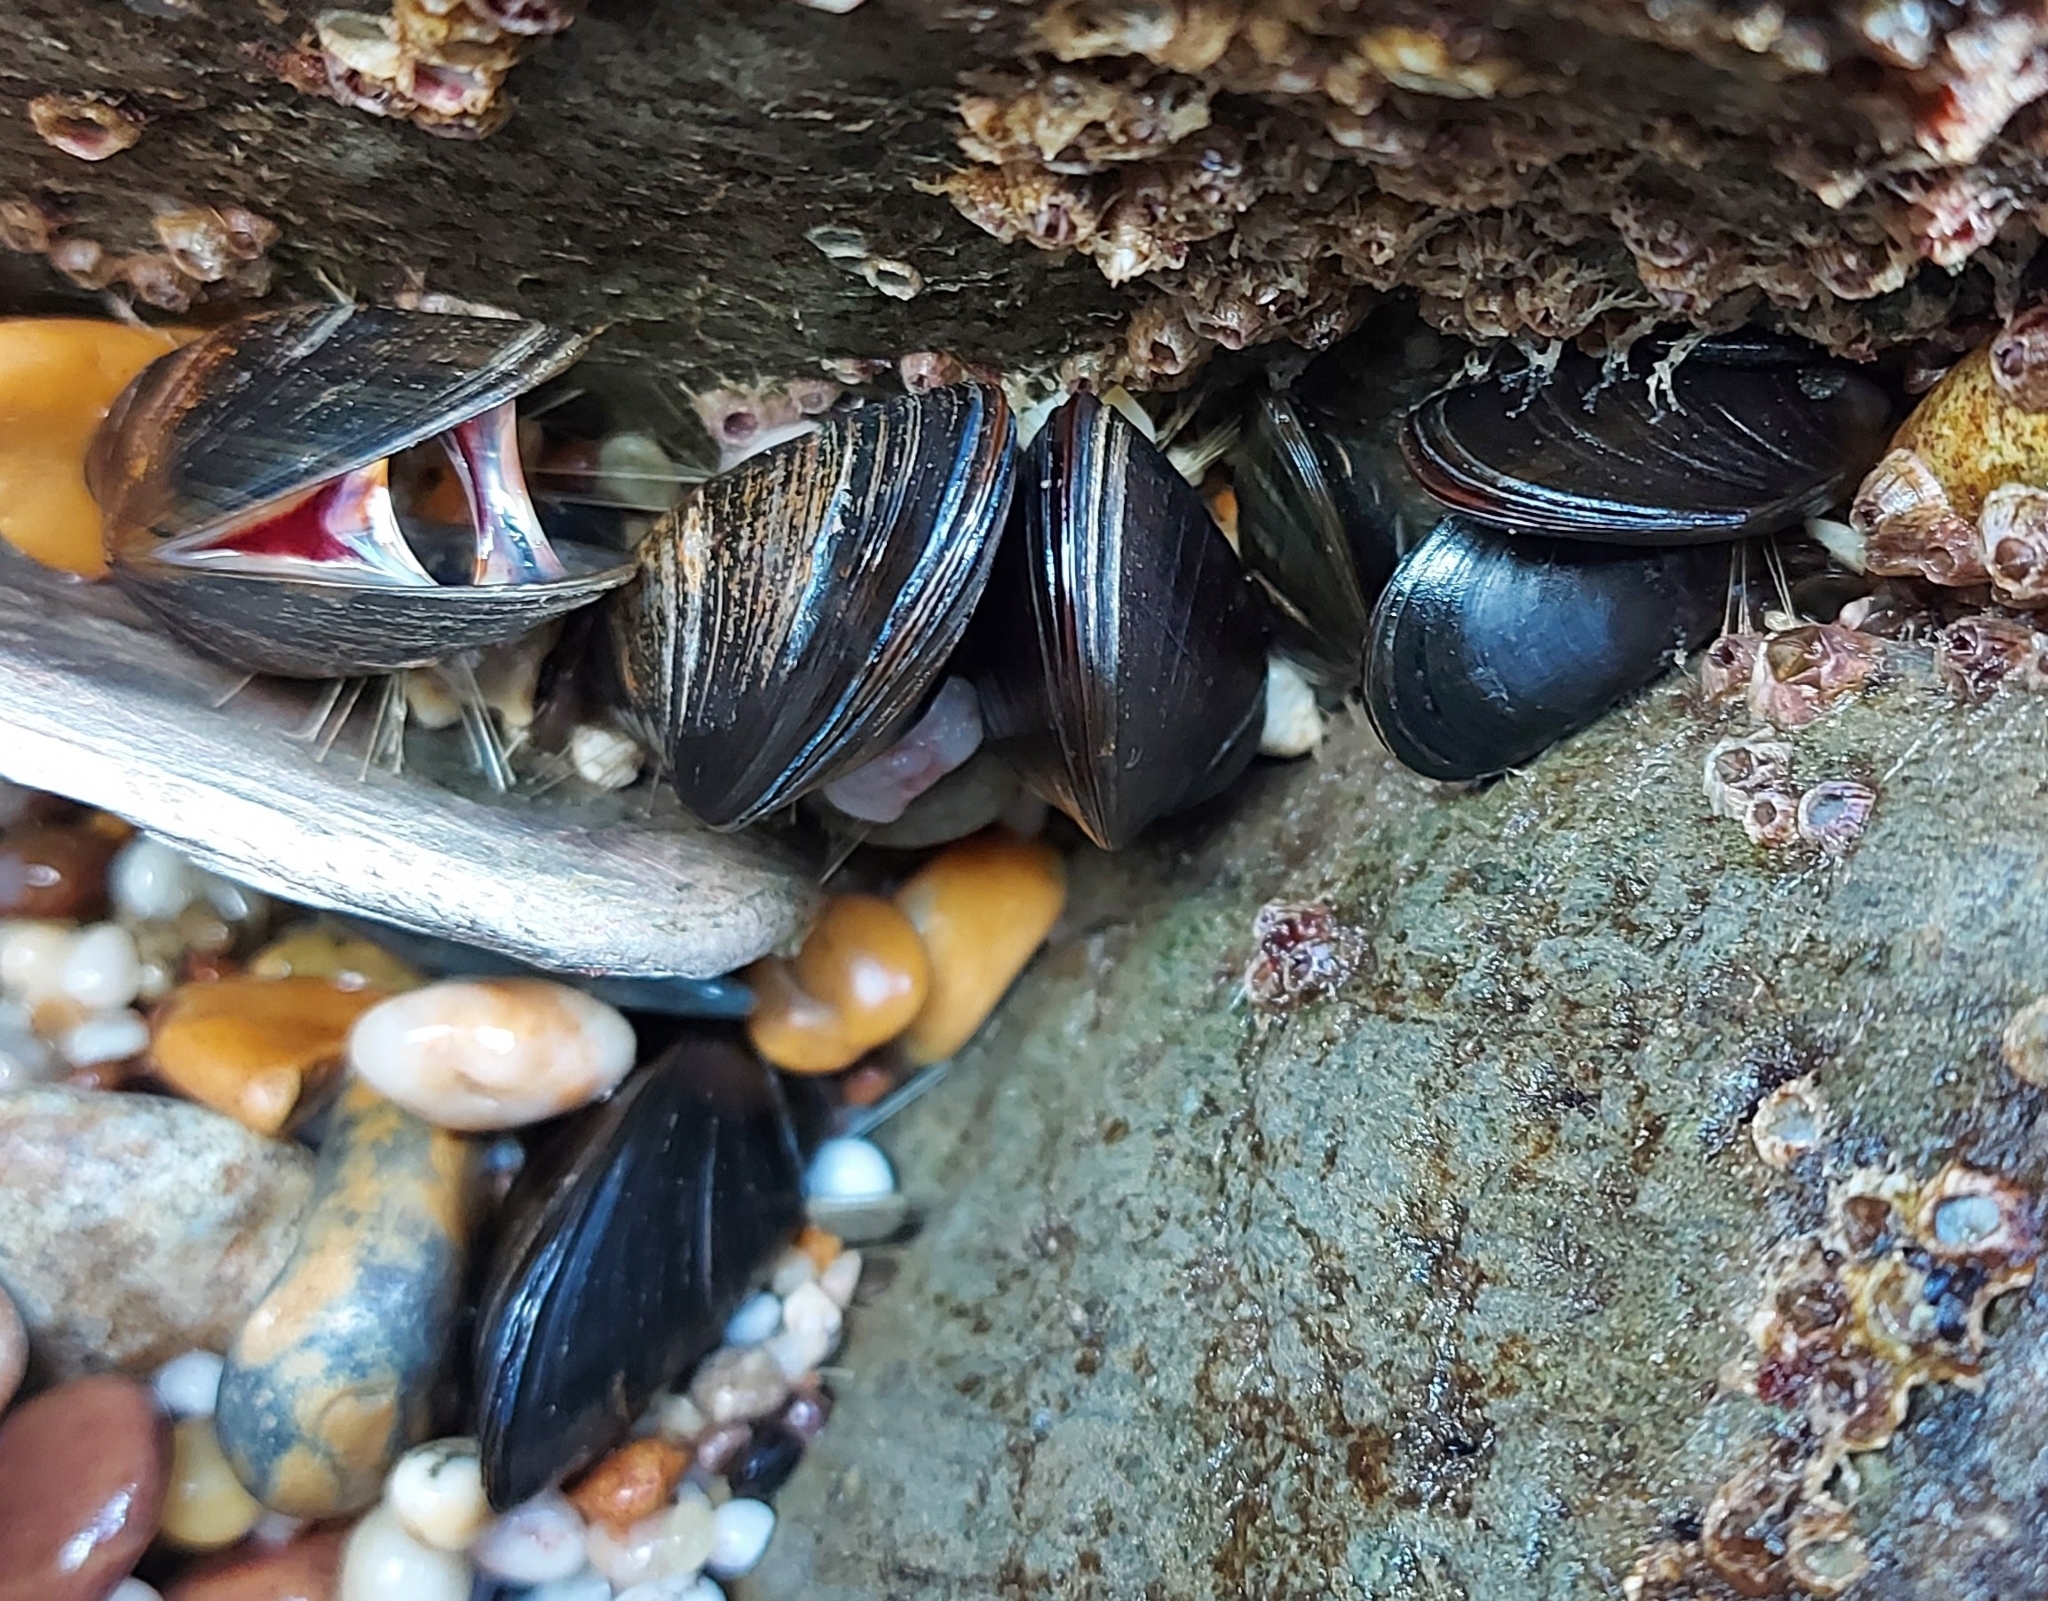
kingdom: Animalia
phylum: Mollusca
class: Bivalvia
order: Mytilida
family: Mytilidae
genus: Mytilus
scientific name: Mytilus edulis
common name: Blue mussel
